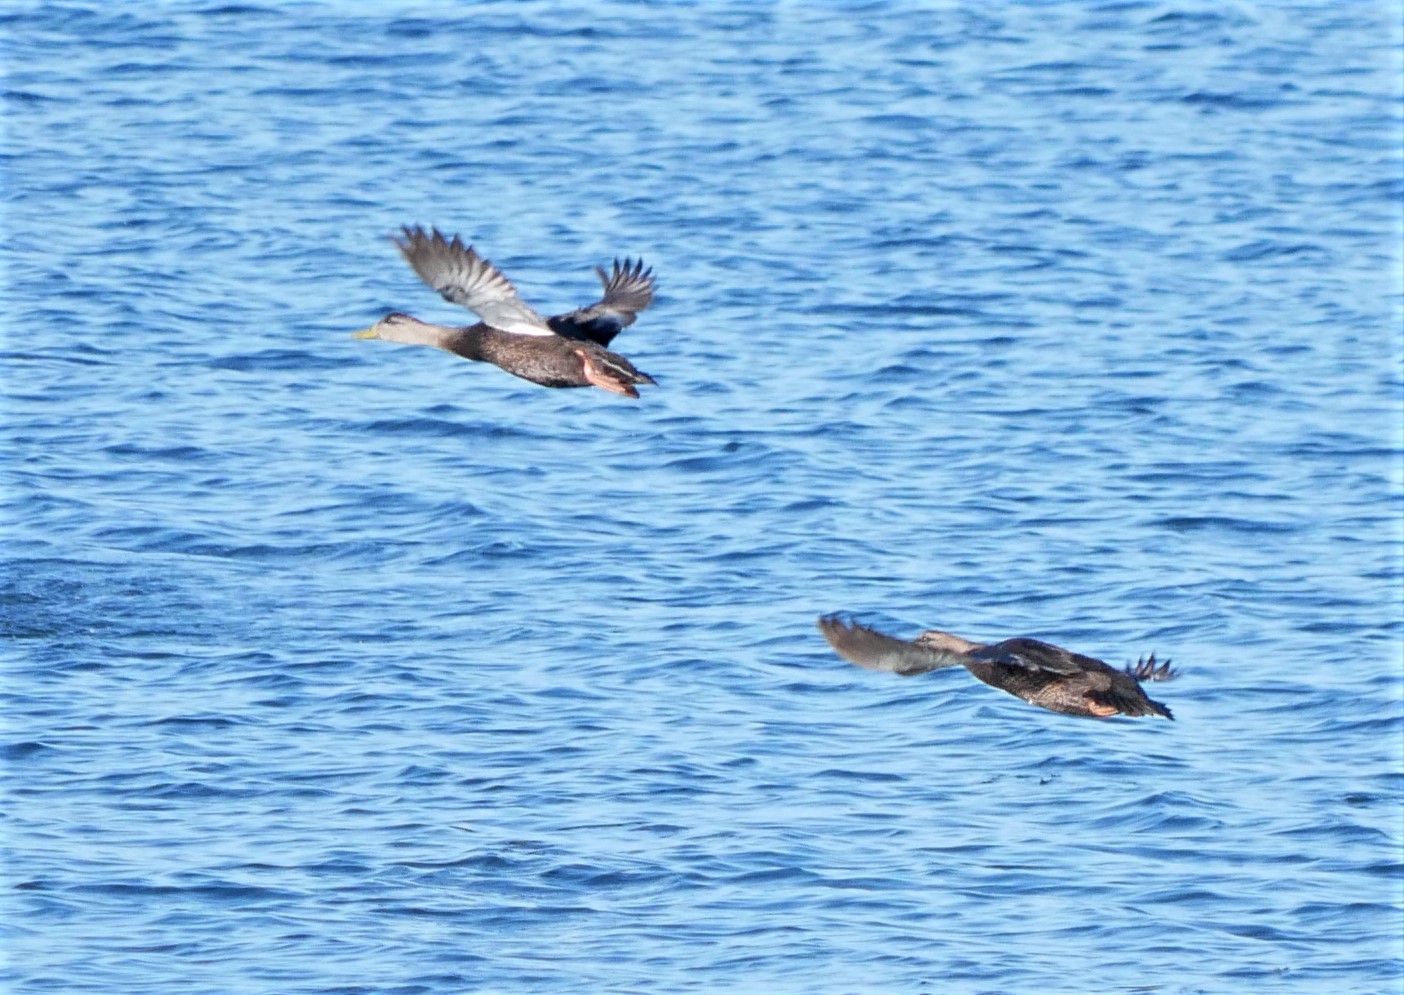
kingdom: Animalia
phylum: Chordata
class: Aves
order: Anseriformes
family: Anatidae
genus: Anas
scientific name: Anas rubripes
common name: American black duck
